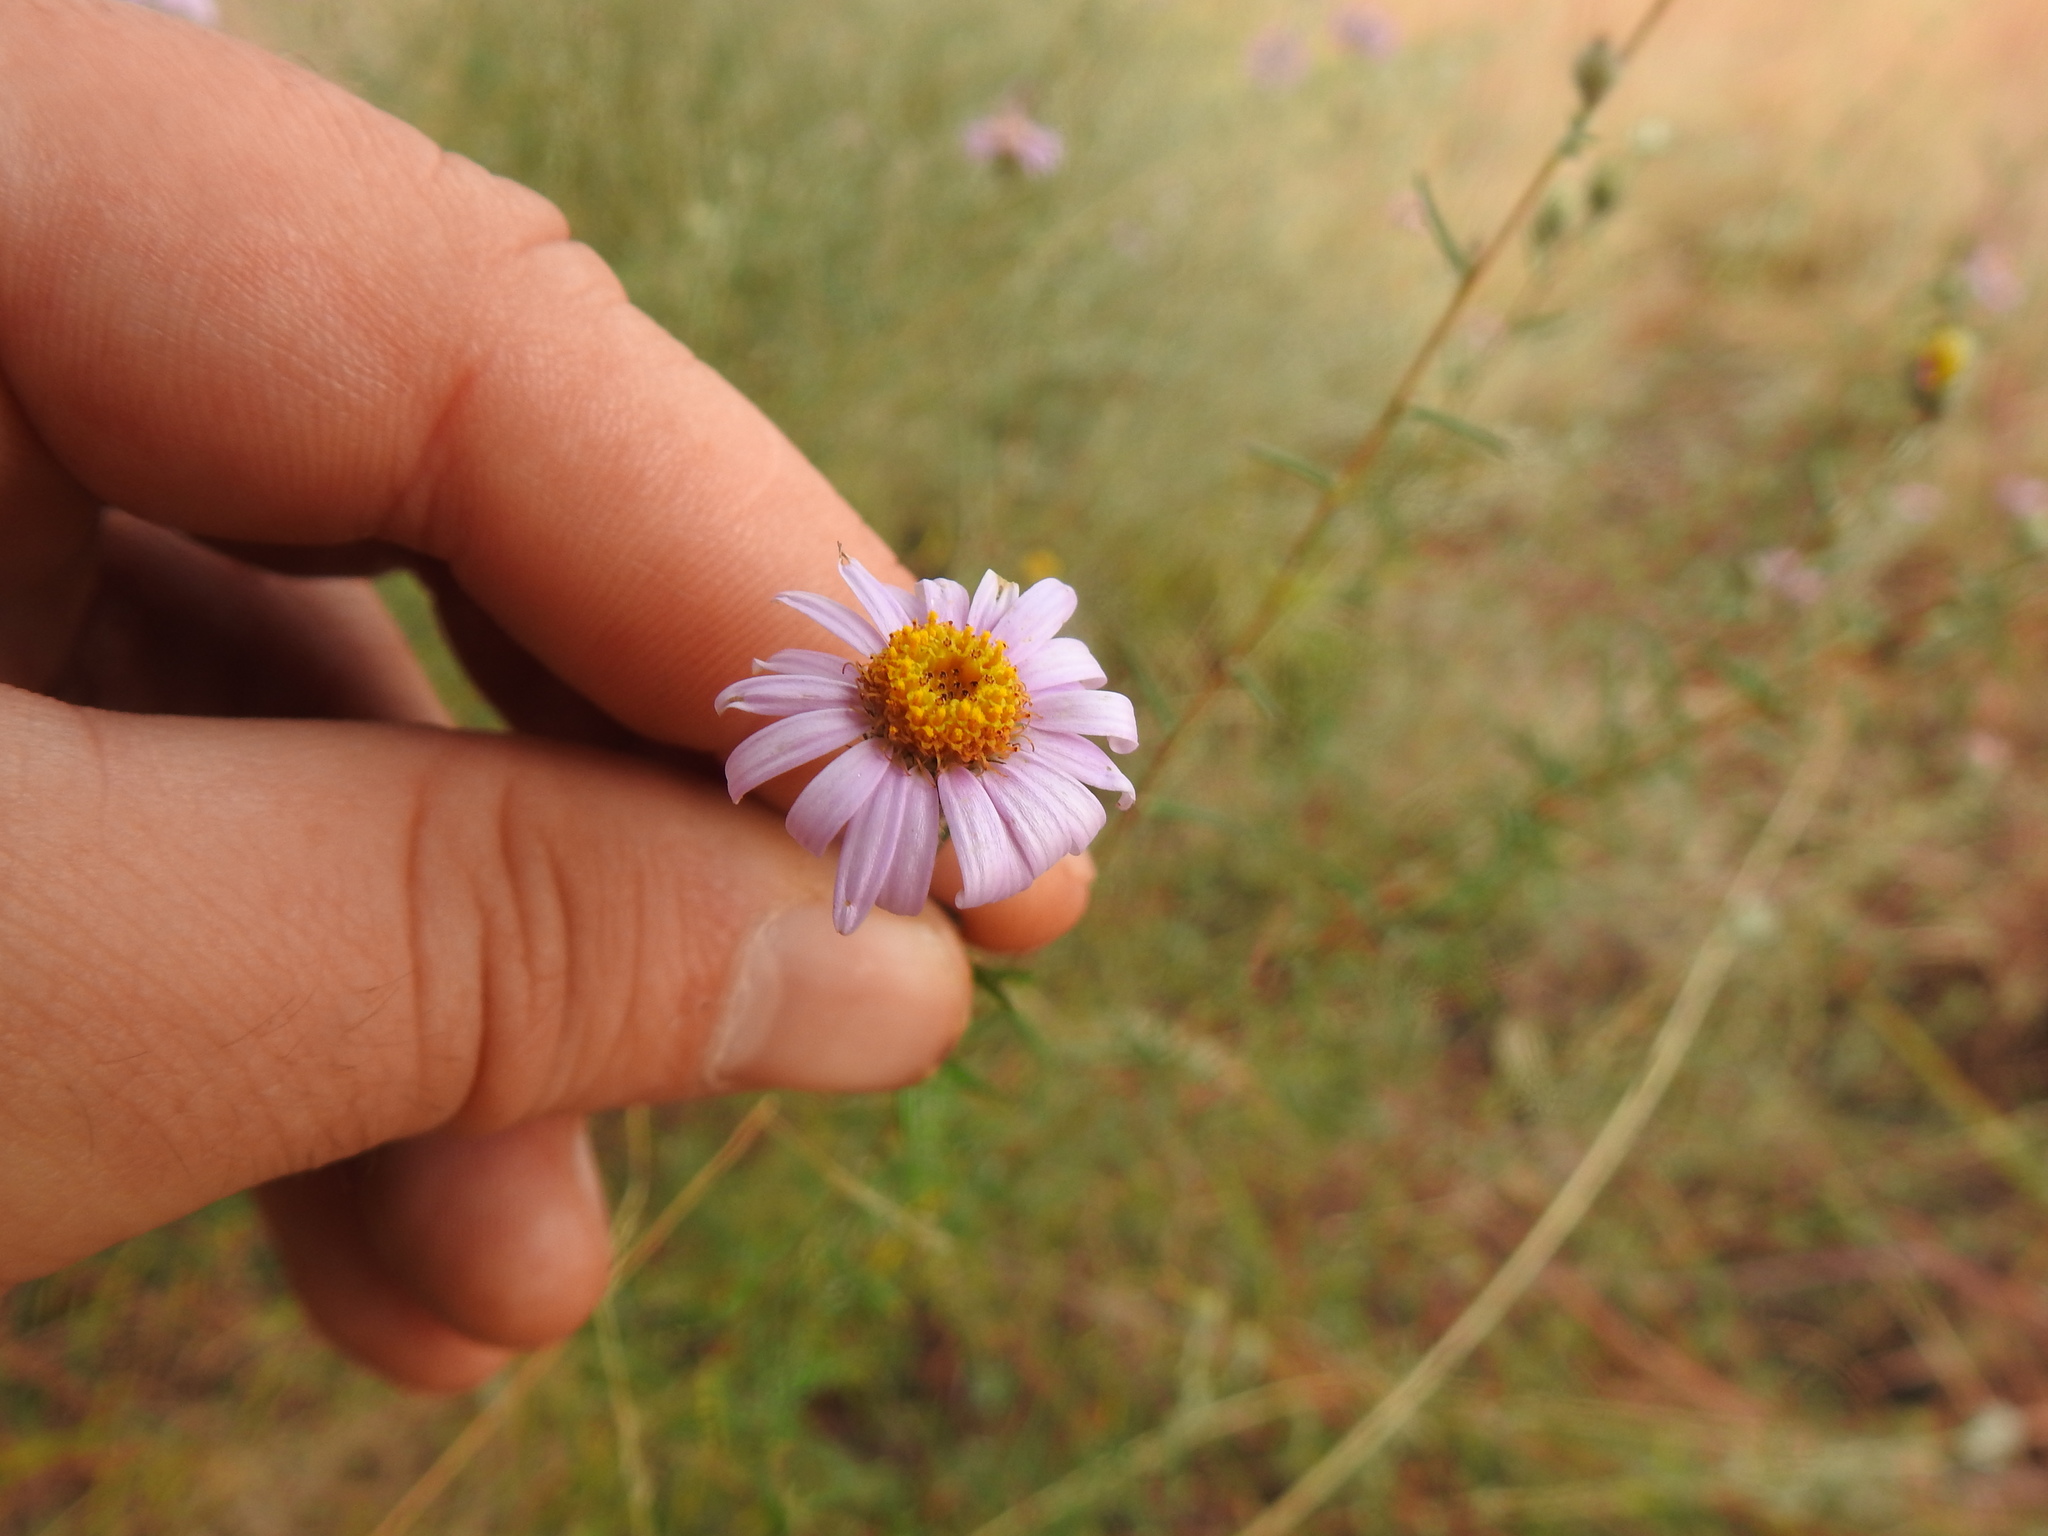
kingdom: Plantae
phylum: Tracheophyta
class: Magnoliopsida
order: Asterales
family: Asteraceae
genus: Athrixia
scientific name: Athrixia elata
